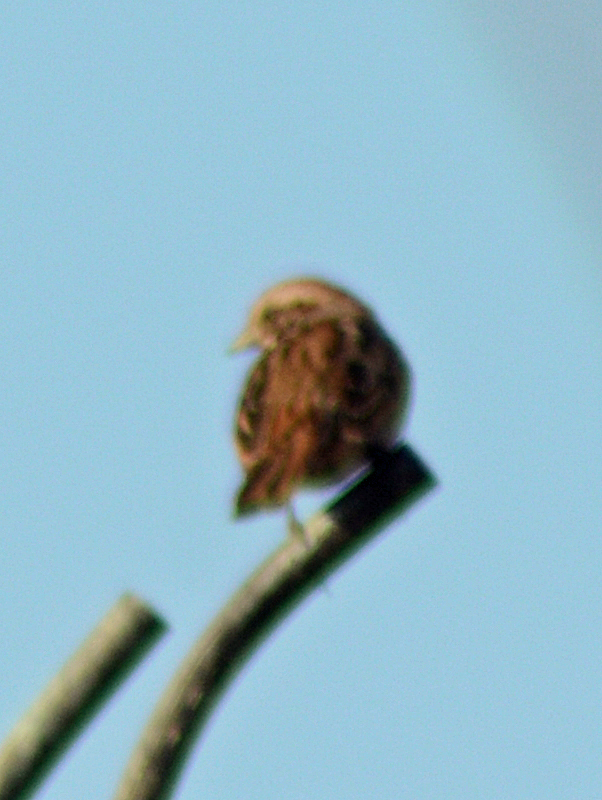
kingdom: Animalia
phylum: Chordata
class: Aves
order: Passeriformes
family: Passerellidae
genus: Melospiza
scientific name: Melospiza melodia
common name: Song sparrow
